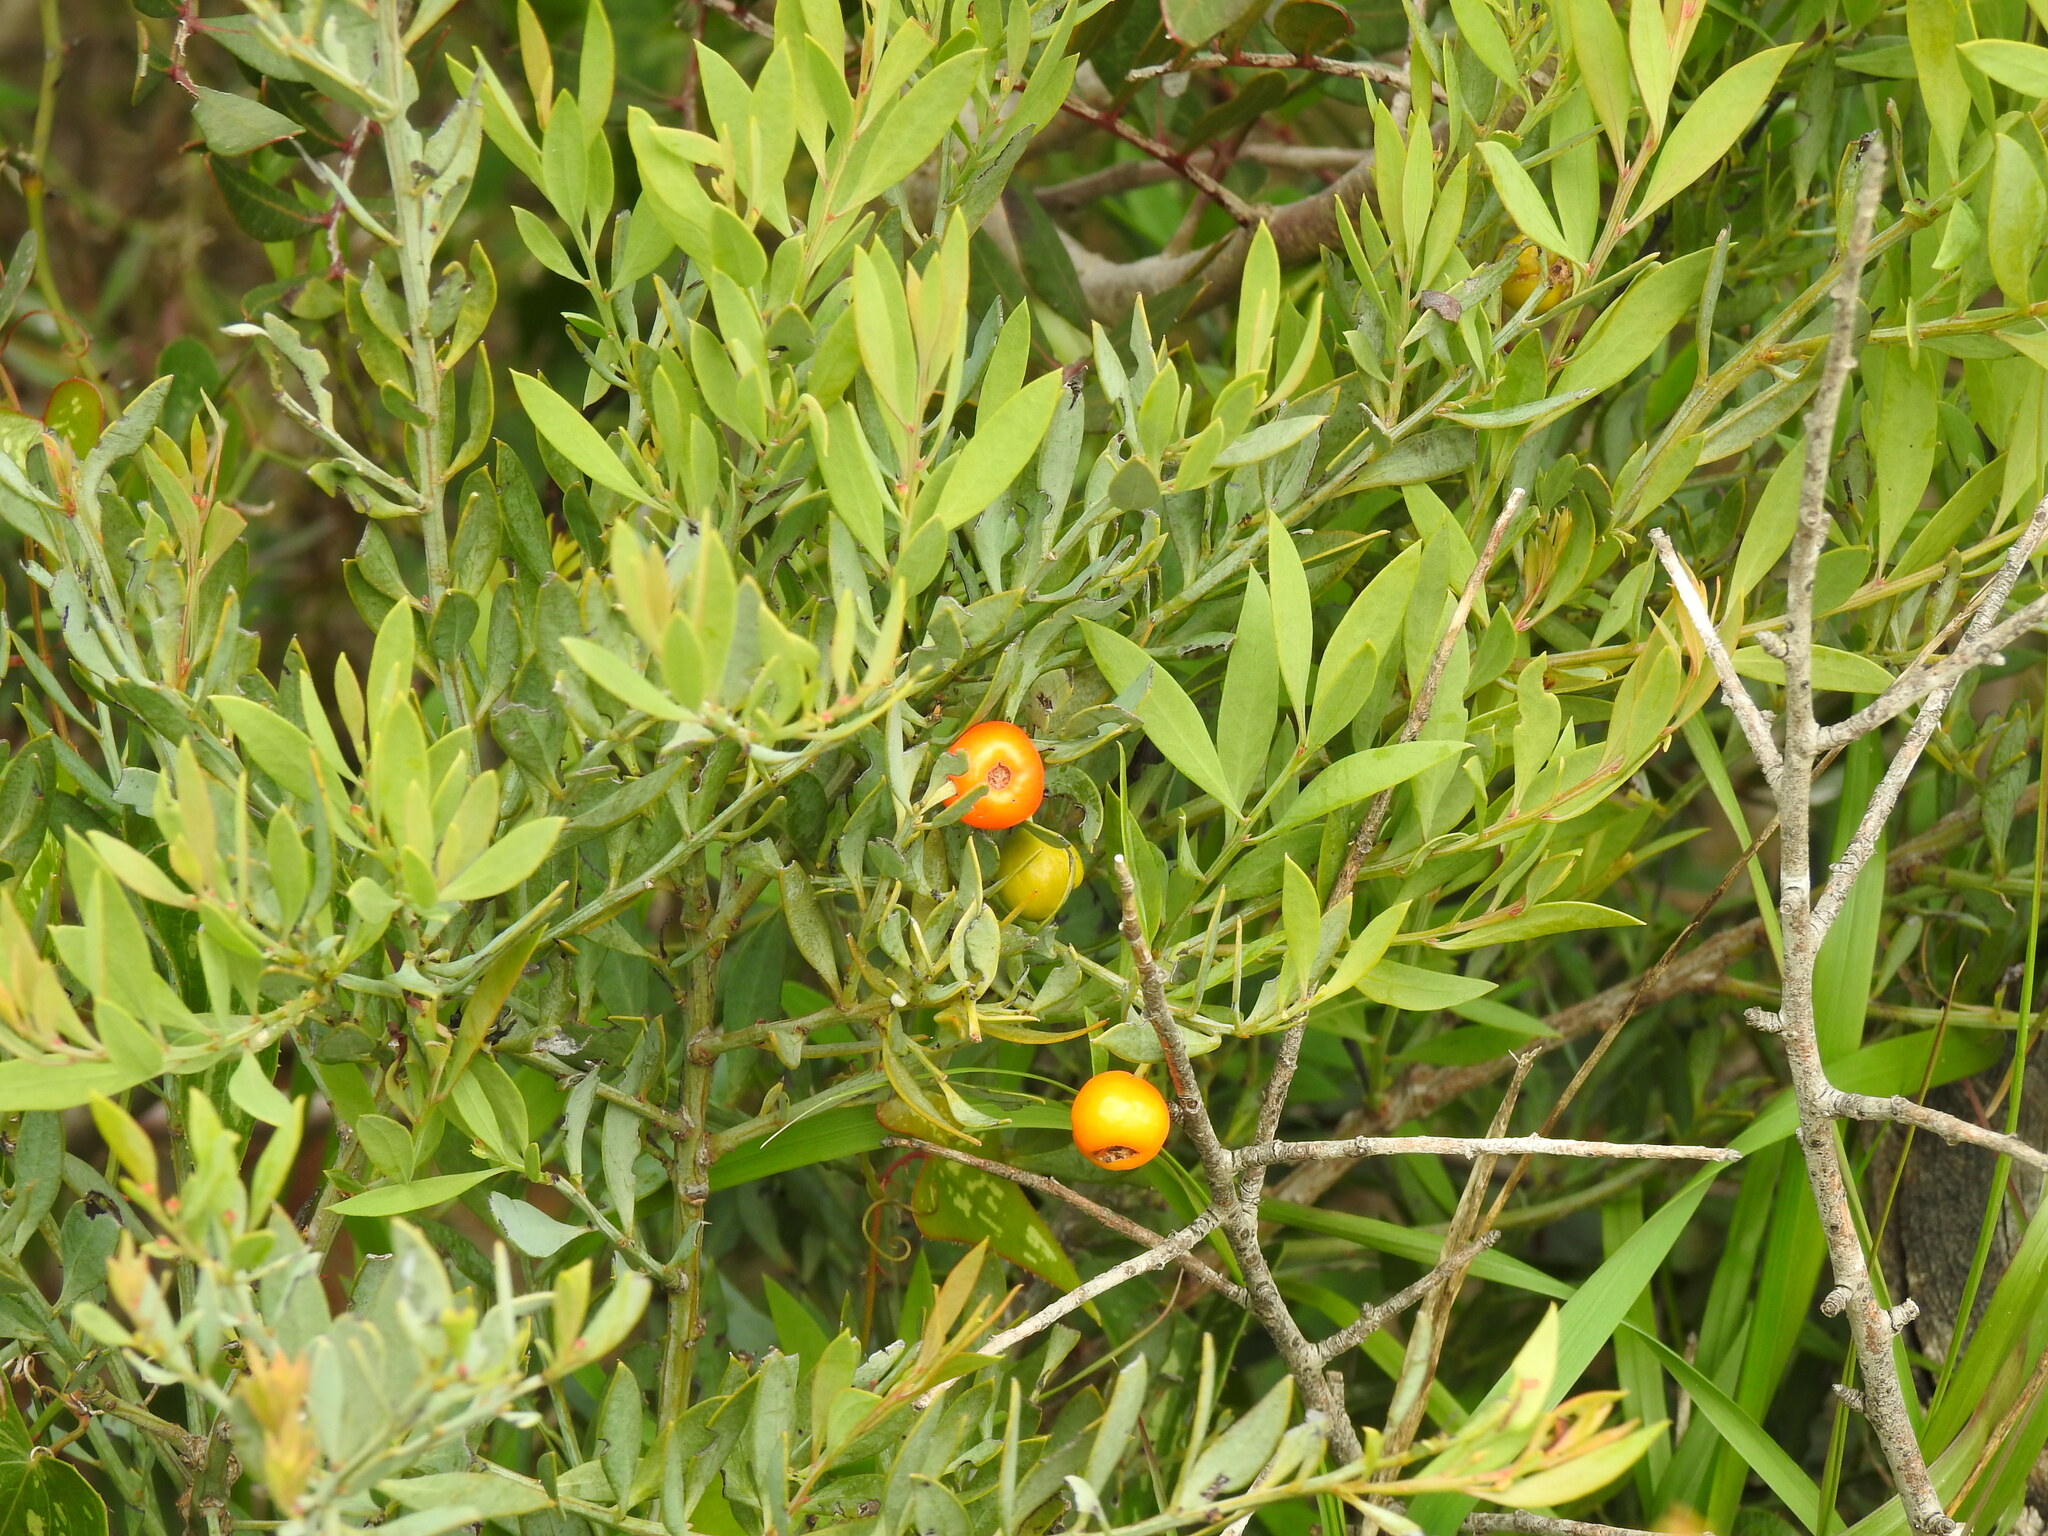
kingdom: Plantae
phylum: Tracheophyta
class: Magnoliopsida
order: Santalales
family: Santalaceae
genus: Osyris
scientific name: Osyris lanceolata
